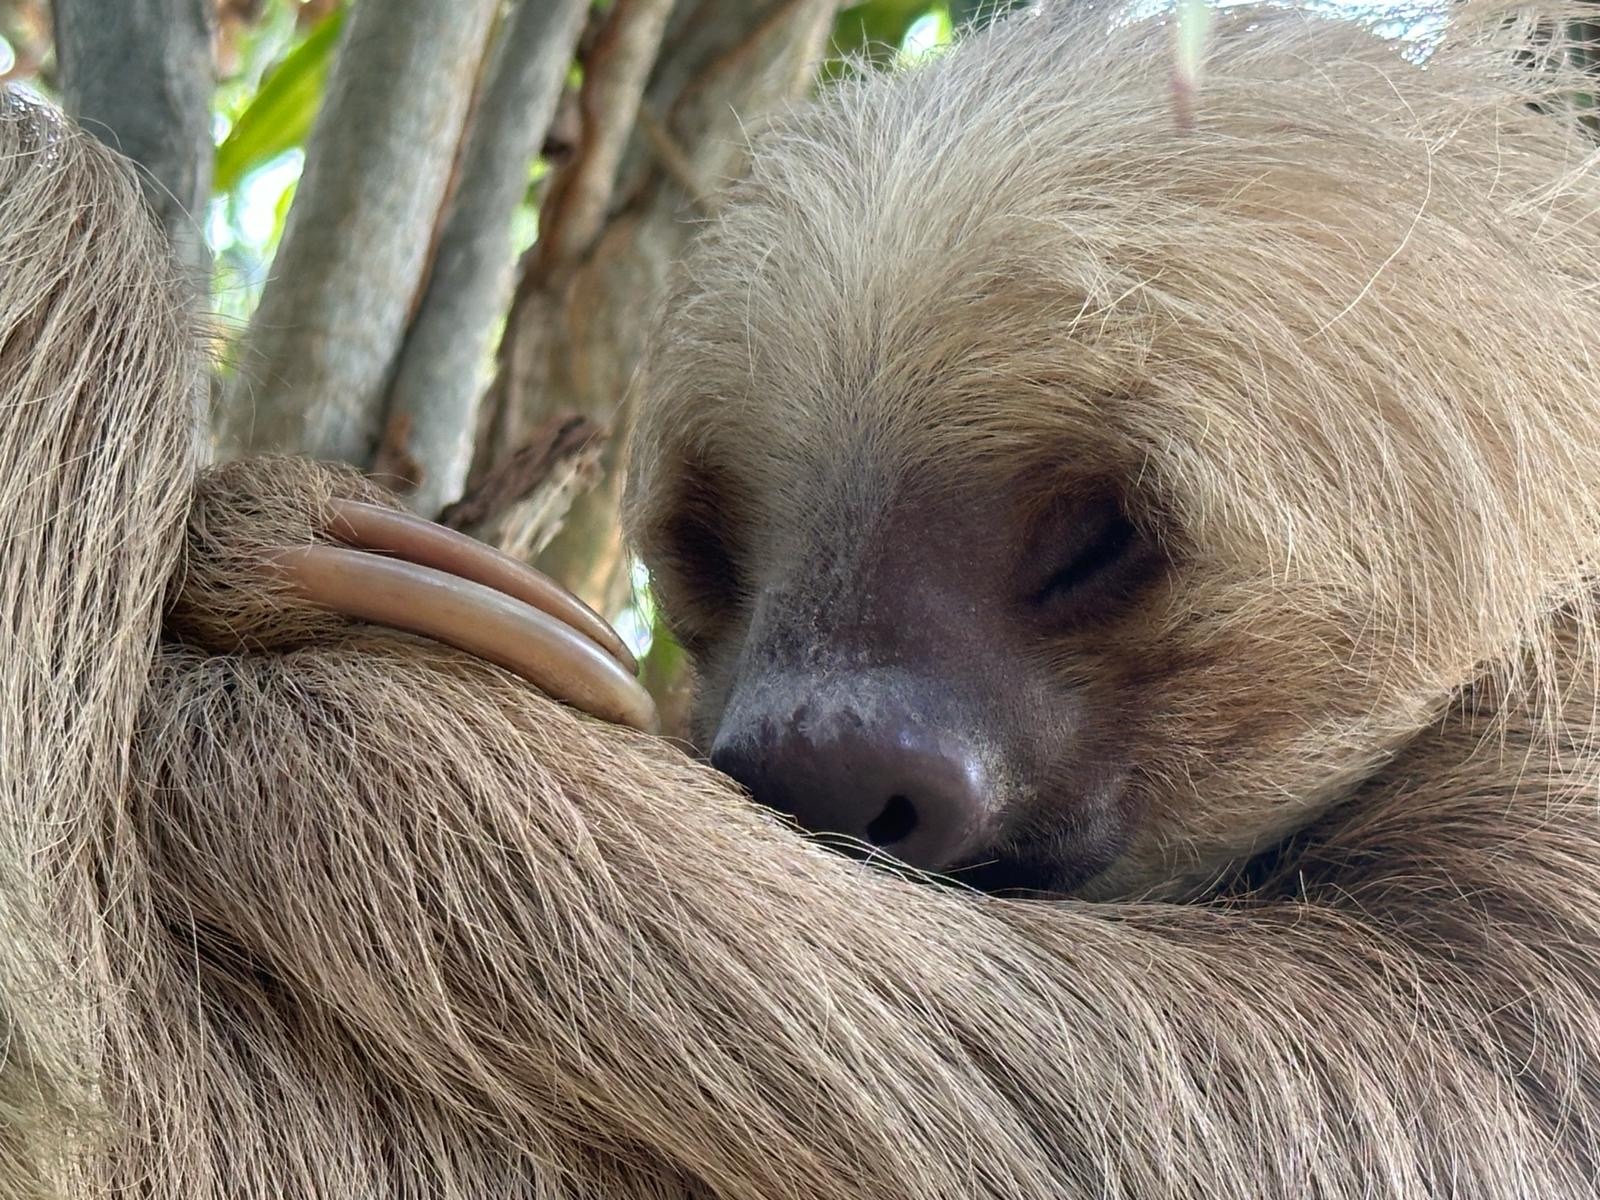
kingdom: Animalia
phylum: Chordata
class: Mammalia
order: Pilosa
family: Megalonychidae
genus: Choloepus
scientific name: Choloepus hoffmanni
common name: Hoffmann's two-toed sloth
